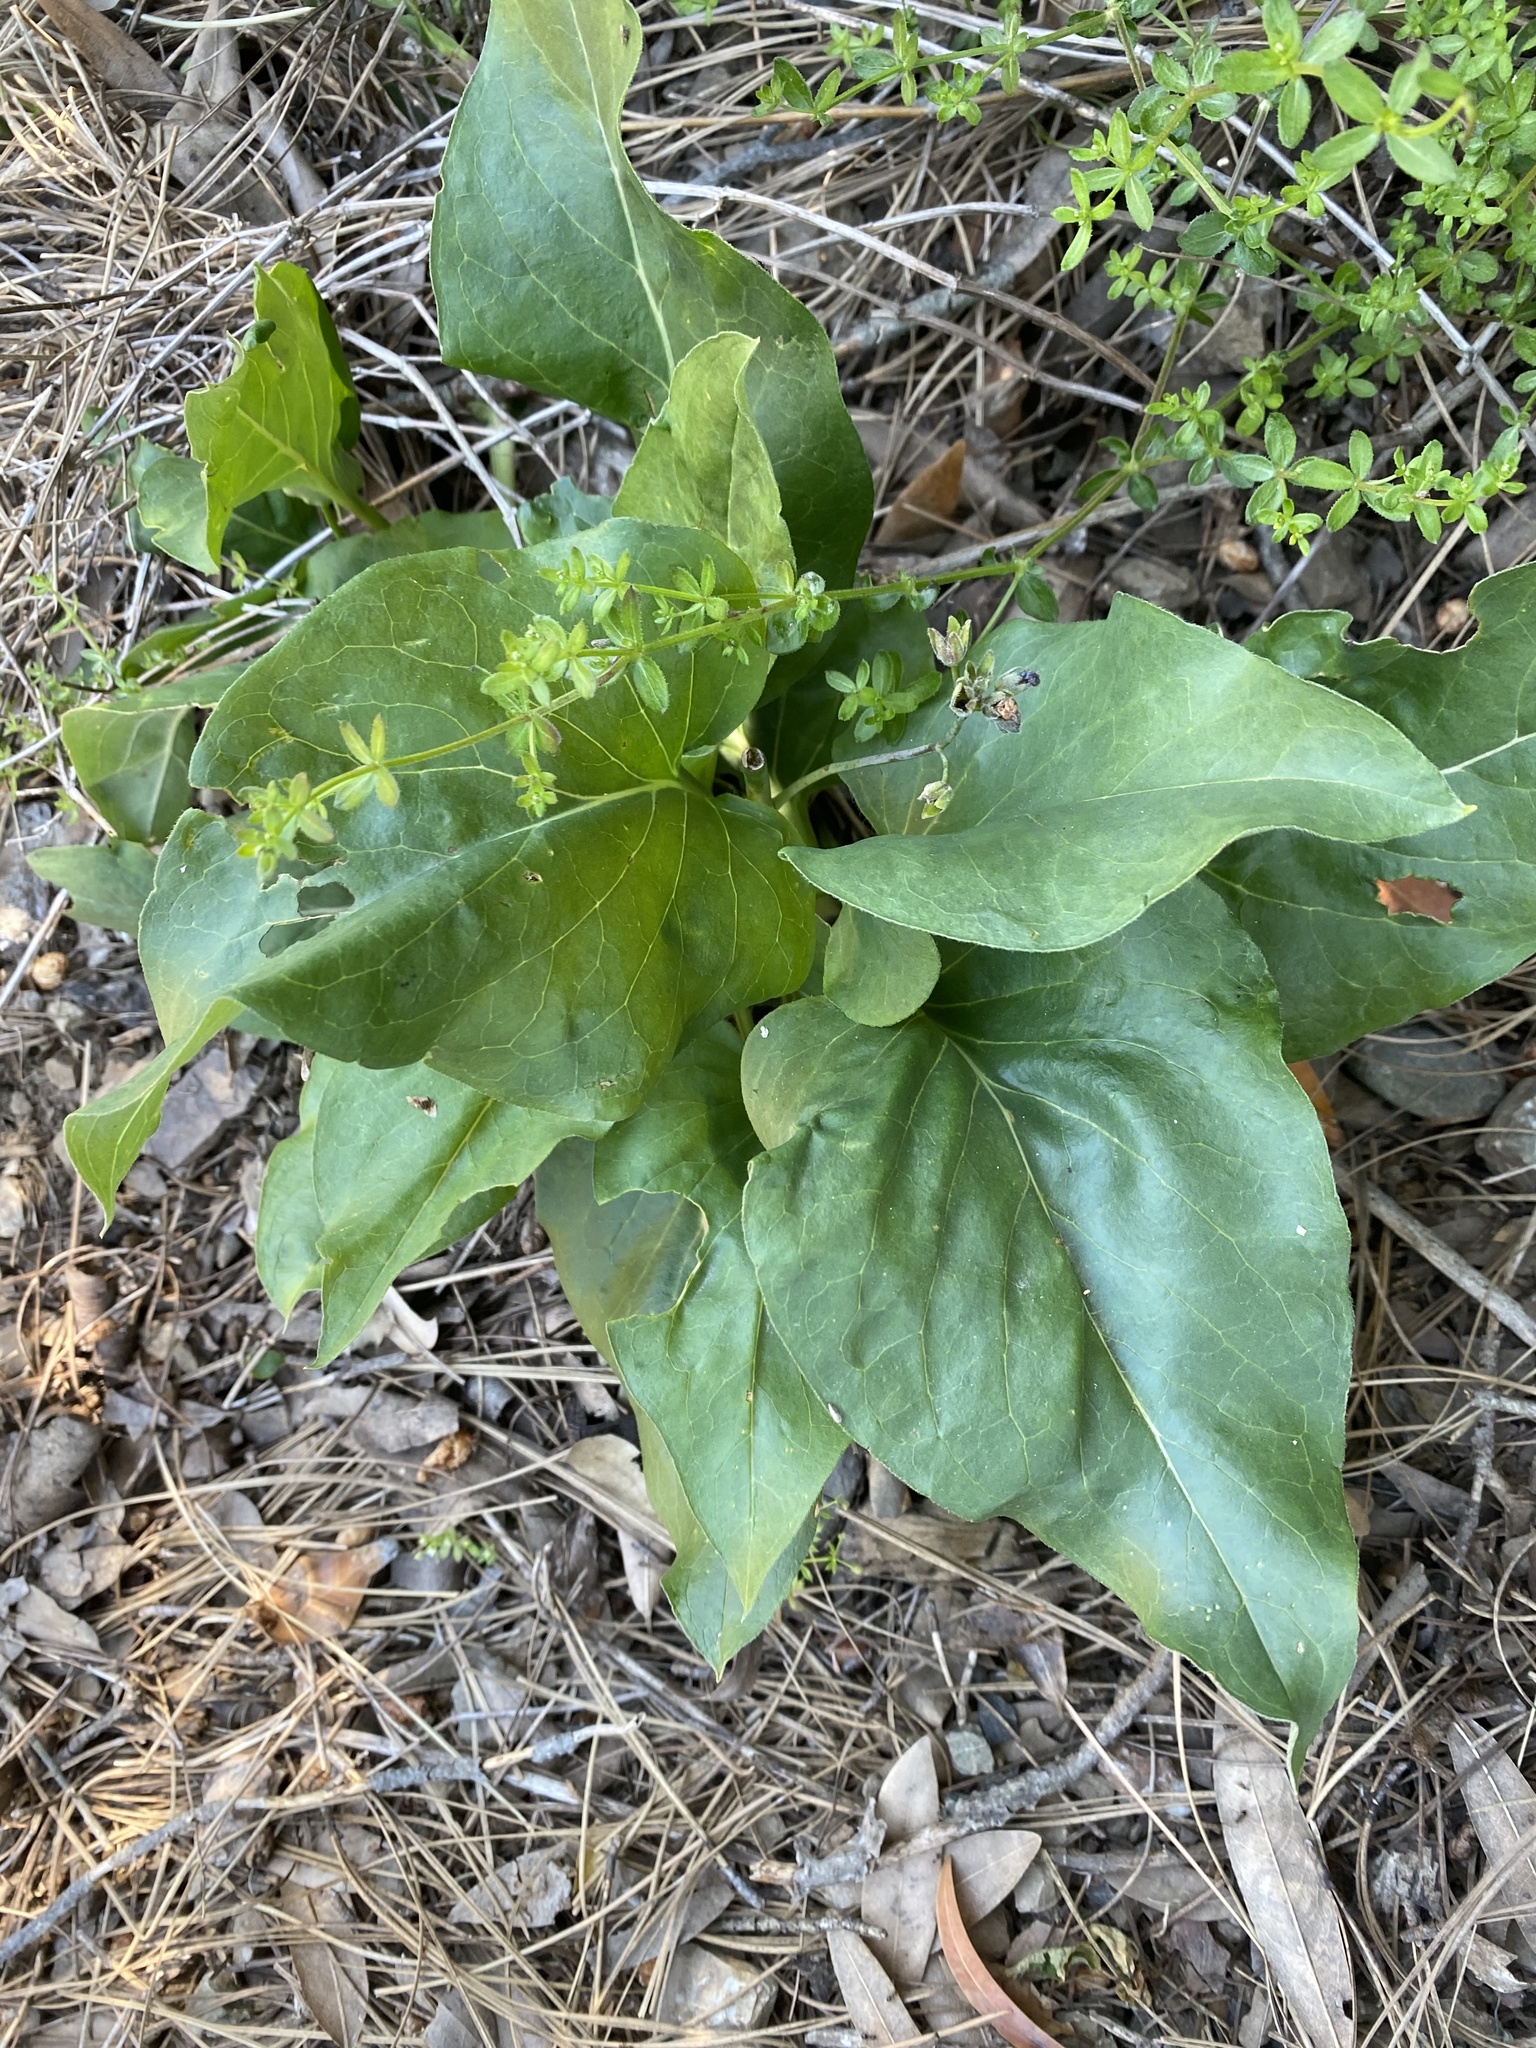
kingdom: Plantae
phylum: Tracheophyta
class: Magnoliopsida
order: Boraginales
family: Boraginaceae
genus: Adelinia
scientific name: Adelinia grande
